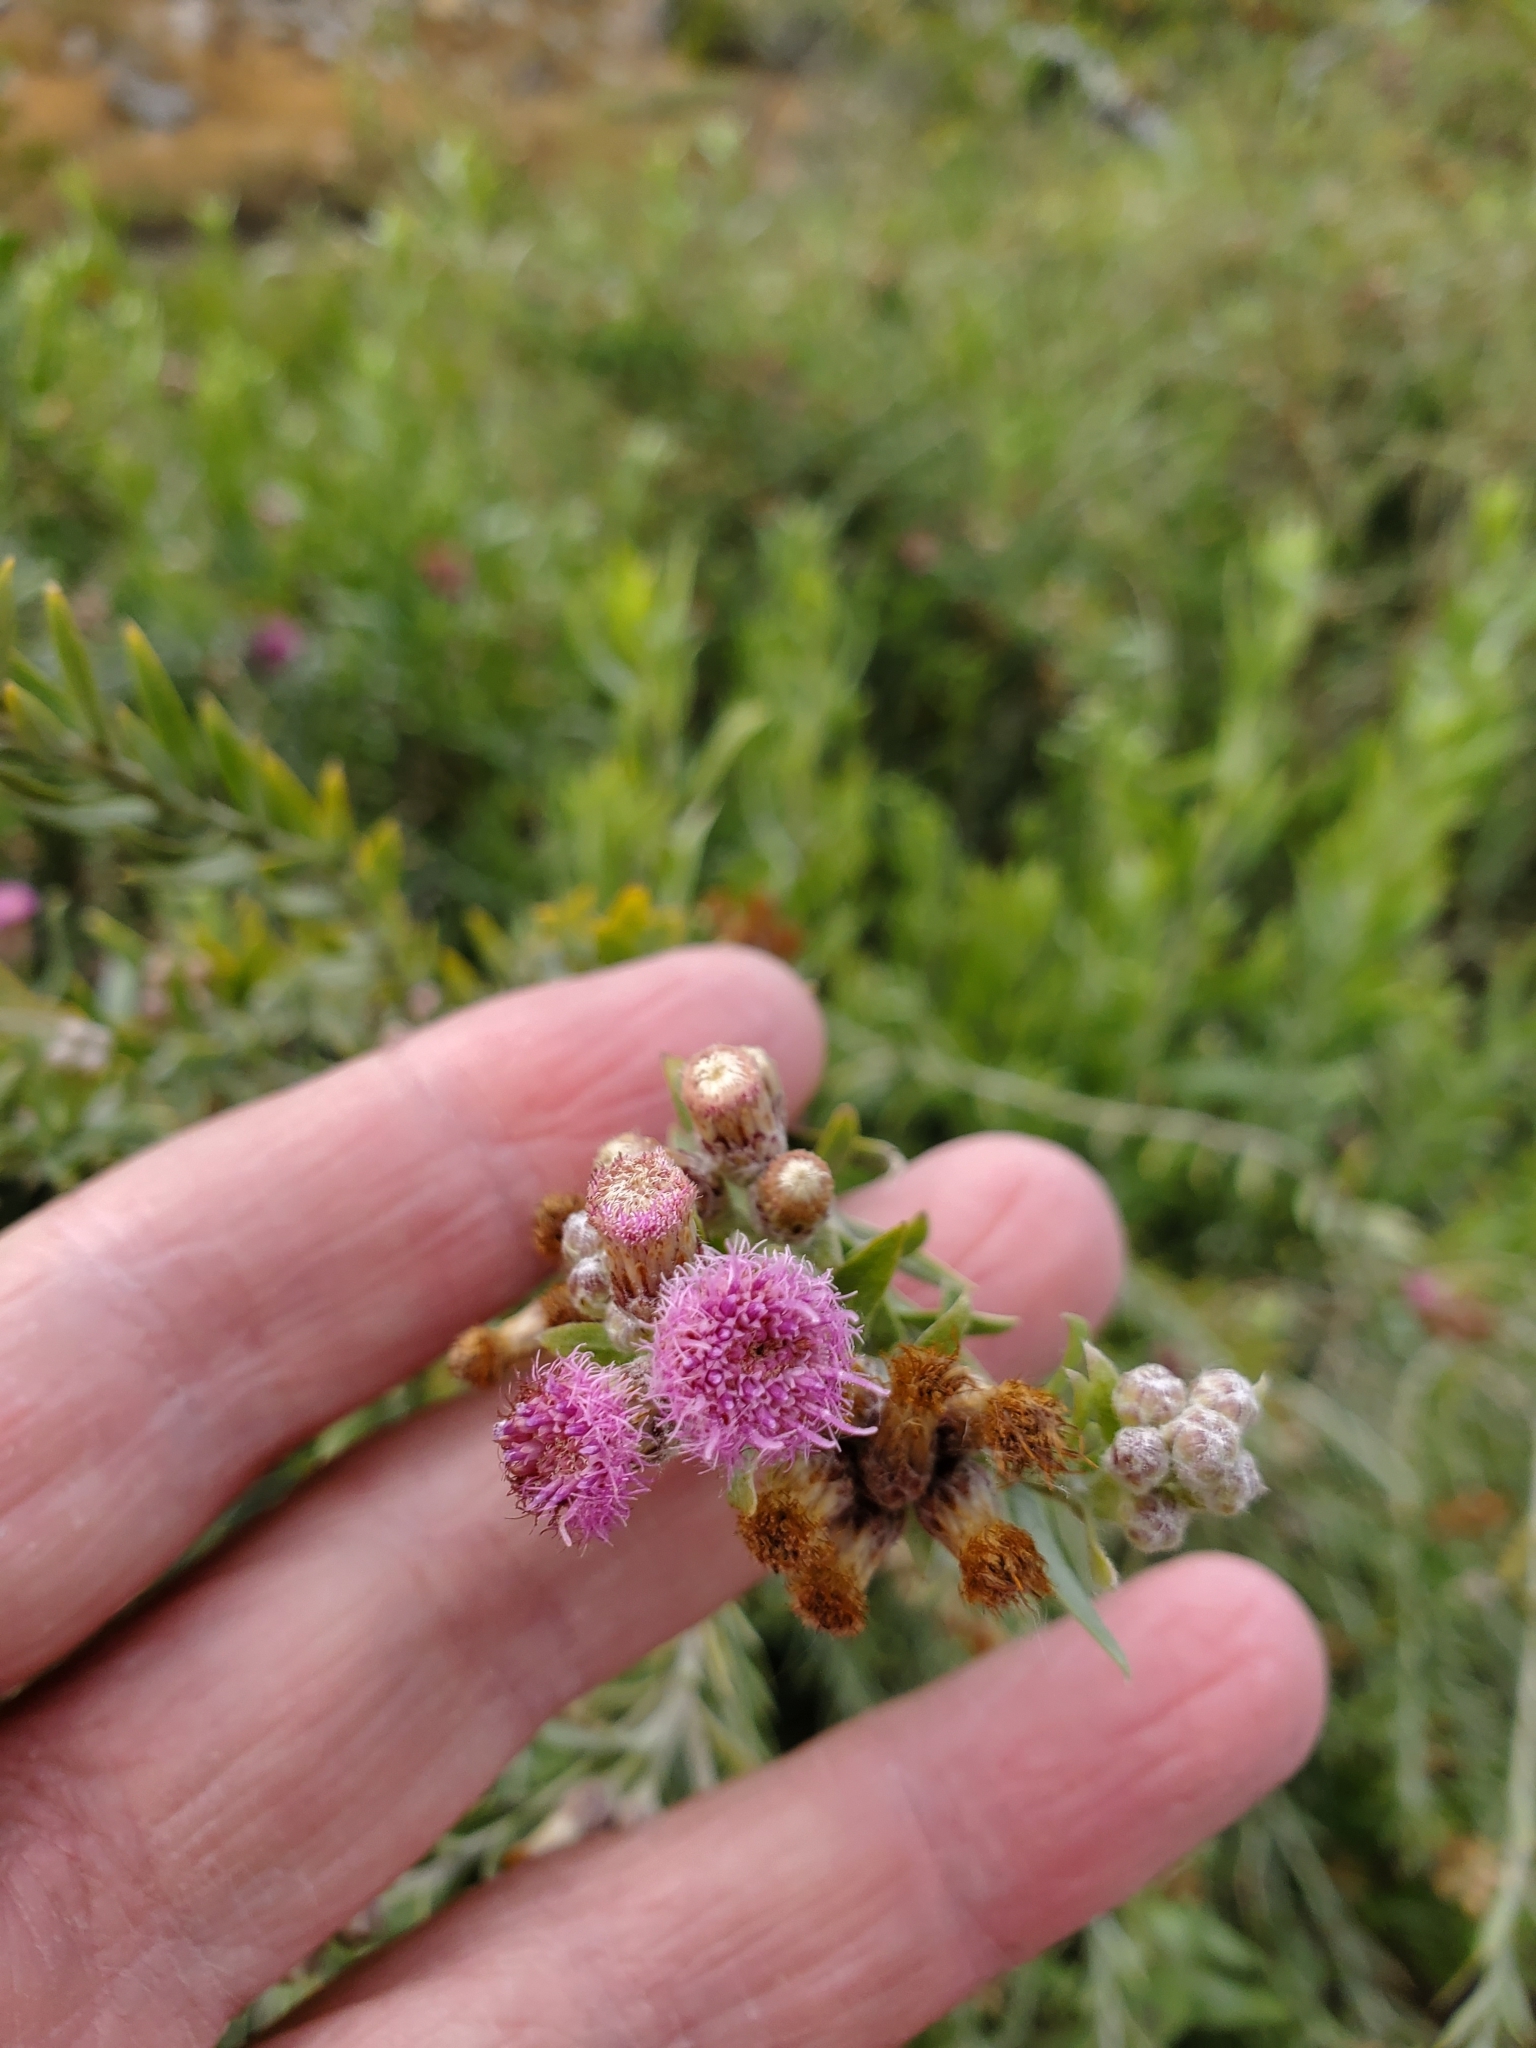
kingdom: Plantae
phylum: Tracheophyta
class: Magnoliopsida
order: Asterales
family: Asteraceae
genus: Pluchea
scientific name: Pluchea sericea
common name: Arrow-weed
